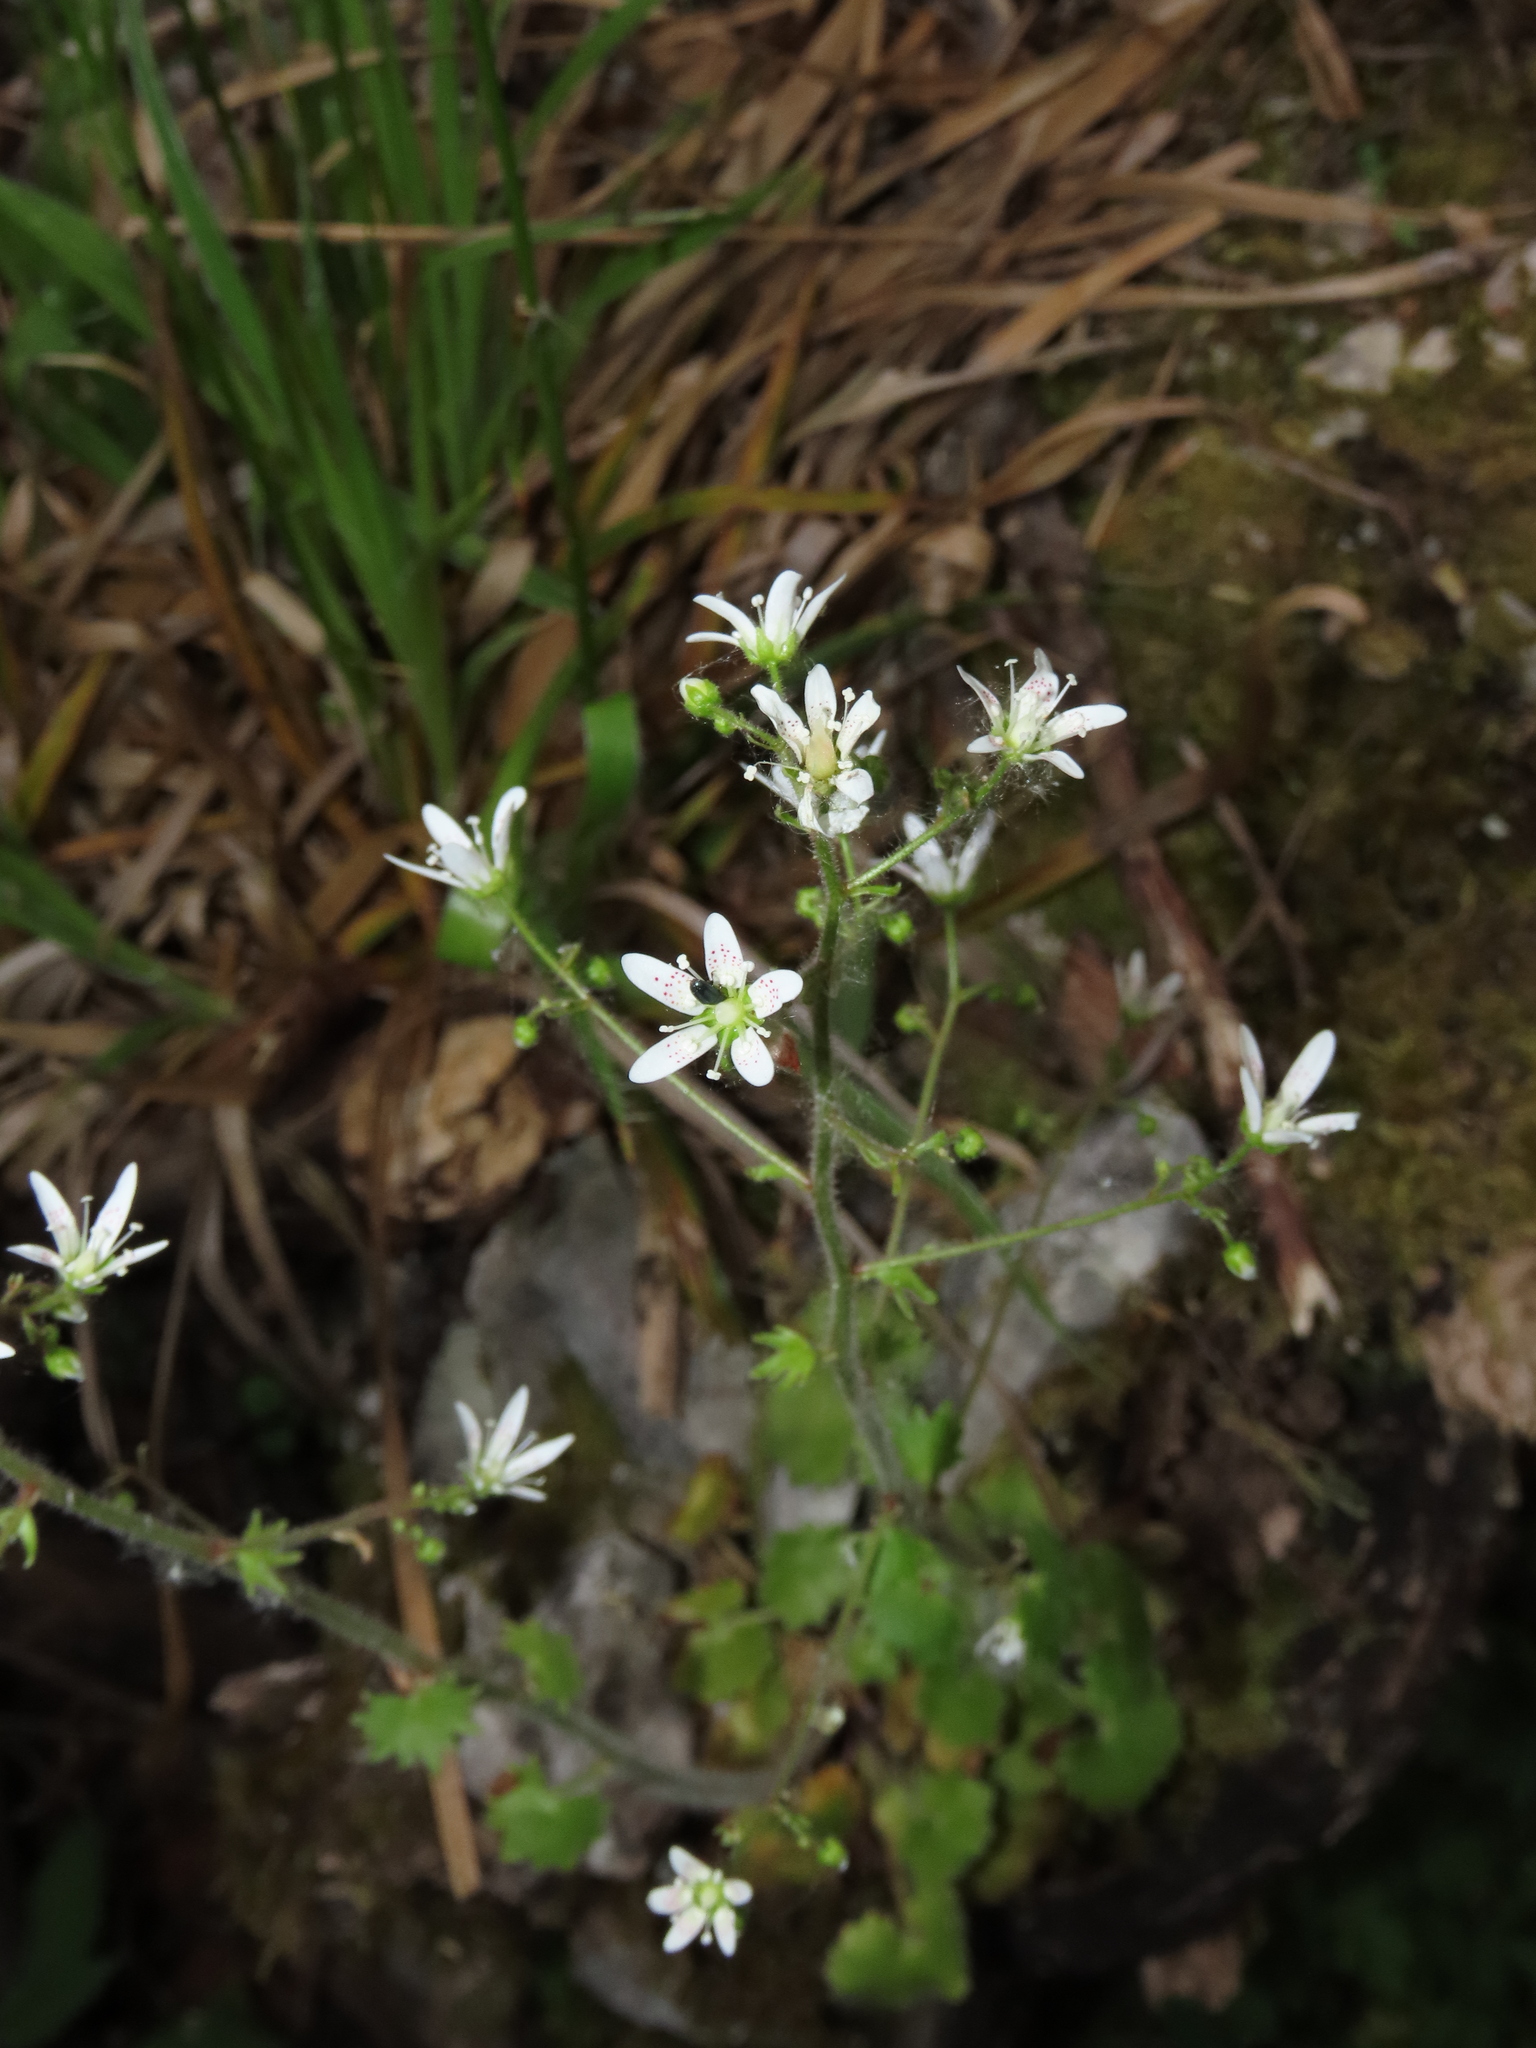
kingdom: Plantae
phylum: Tracheophyta
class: Magnoliopsida
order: Saxifragales
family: Saxifragaceae
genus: Saxifraga
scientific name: Saxifraga rotundifolia
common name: Round-leaved saxifrage
